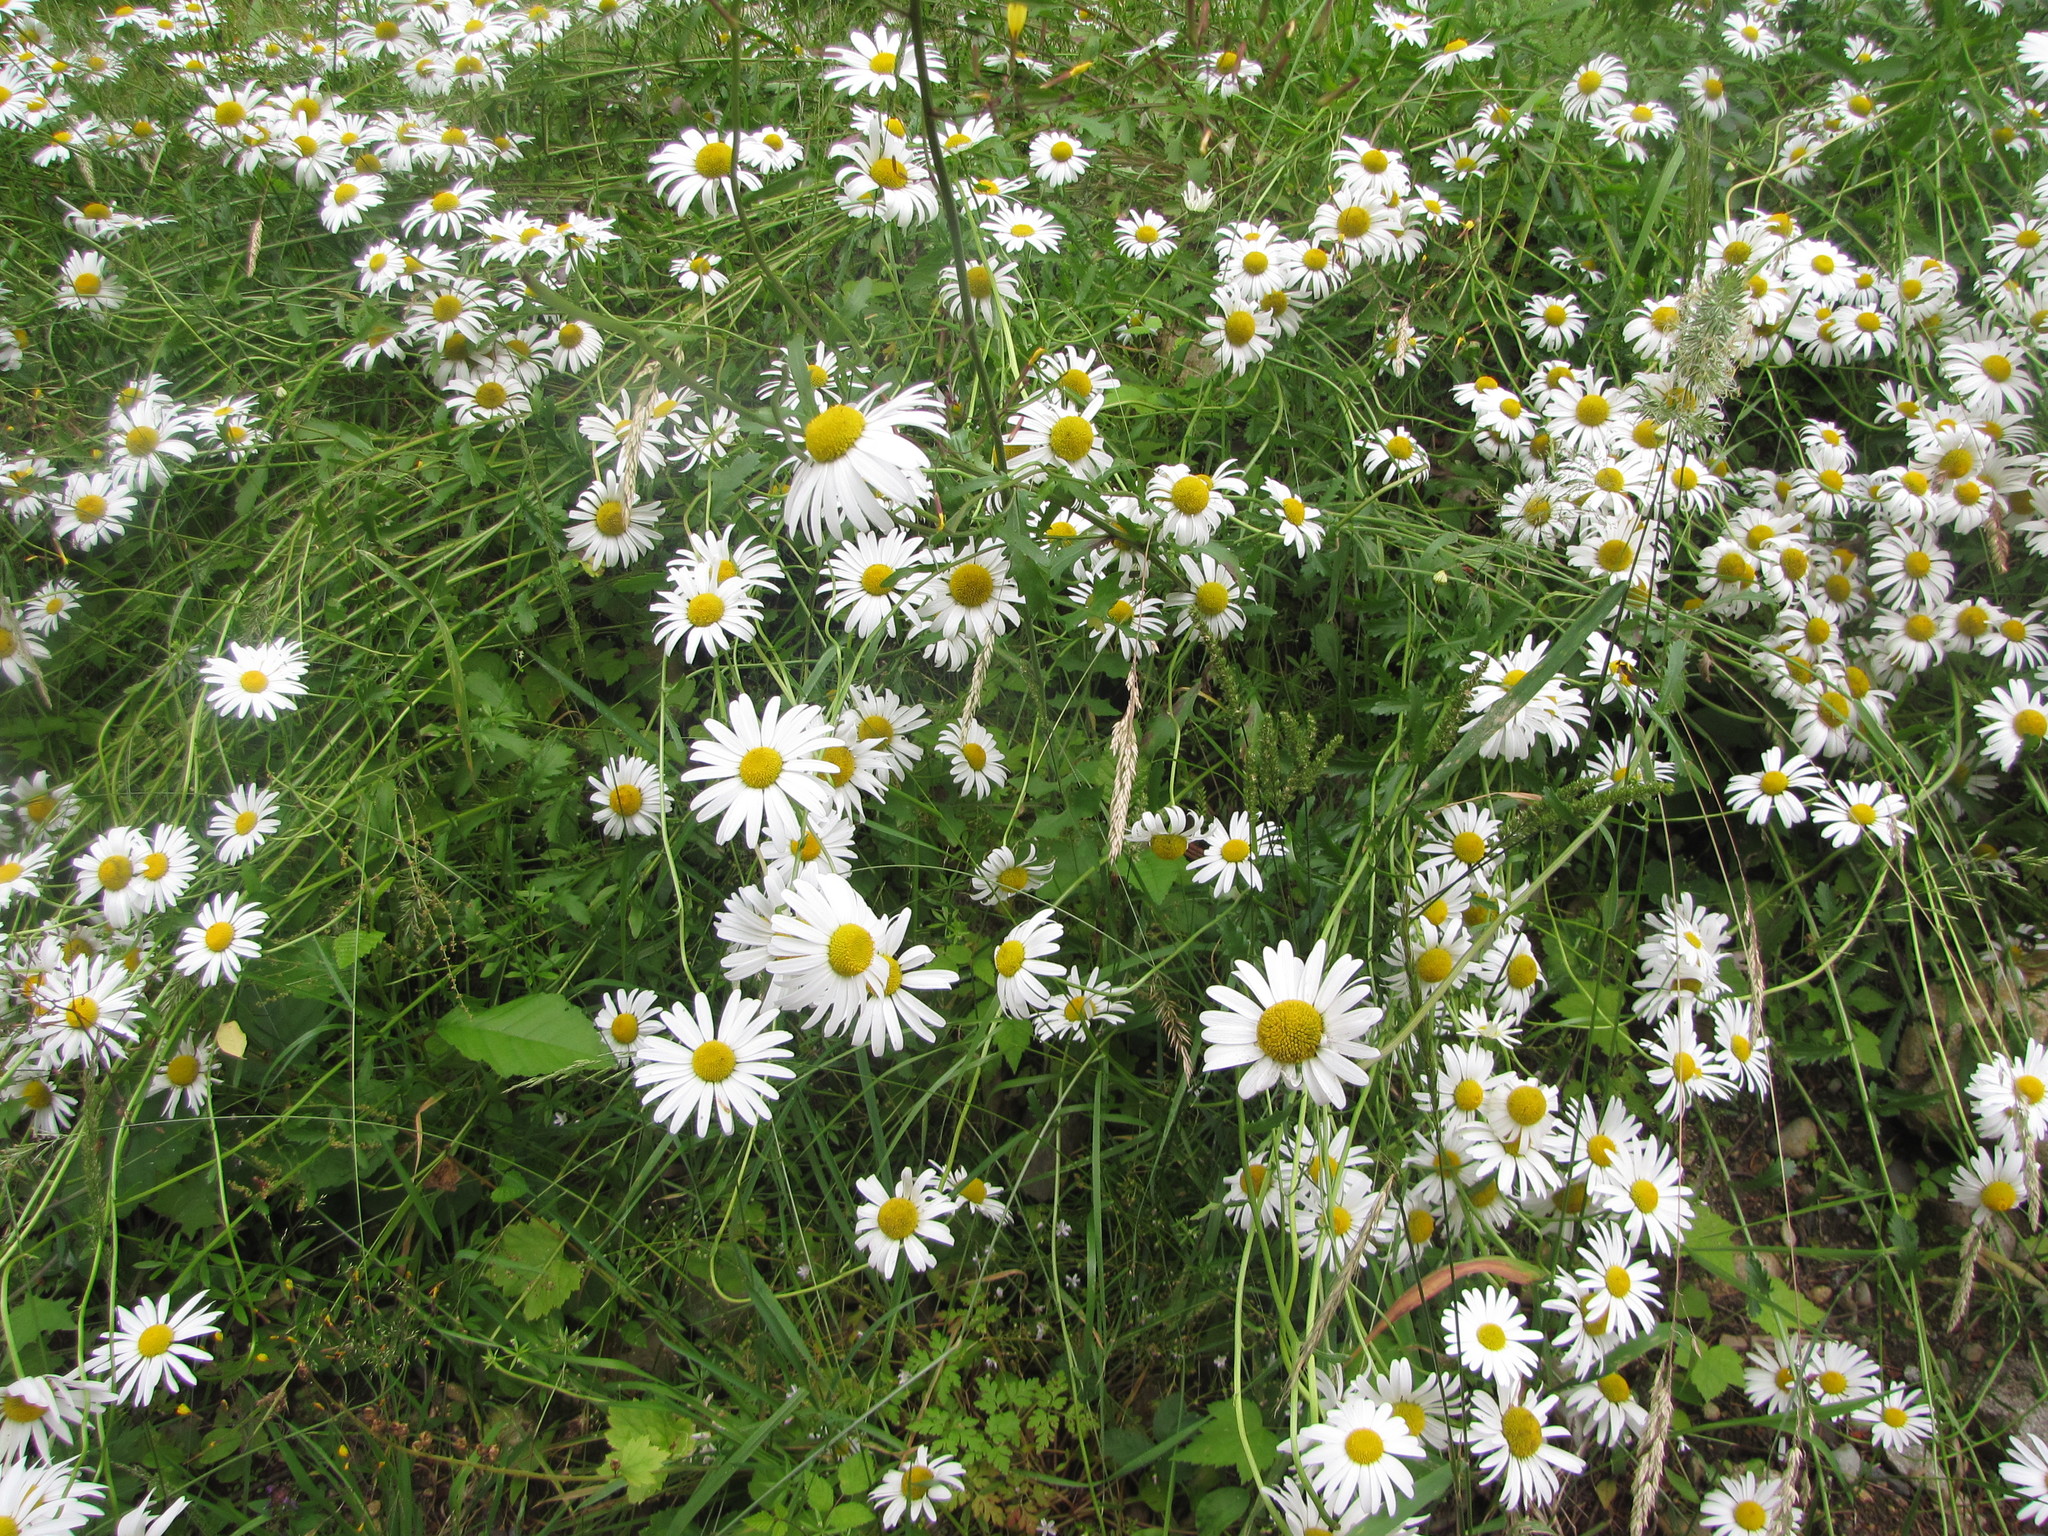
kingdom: Plantae
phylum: Tracheophyta
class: Magnoliopsida
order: Asterales
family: Asteraceae
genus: Leucanthemum
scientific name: Leucanthemum vulgare
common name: Oxeye daisy
